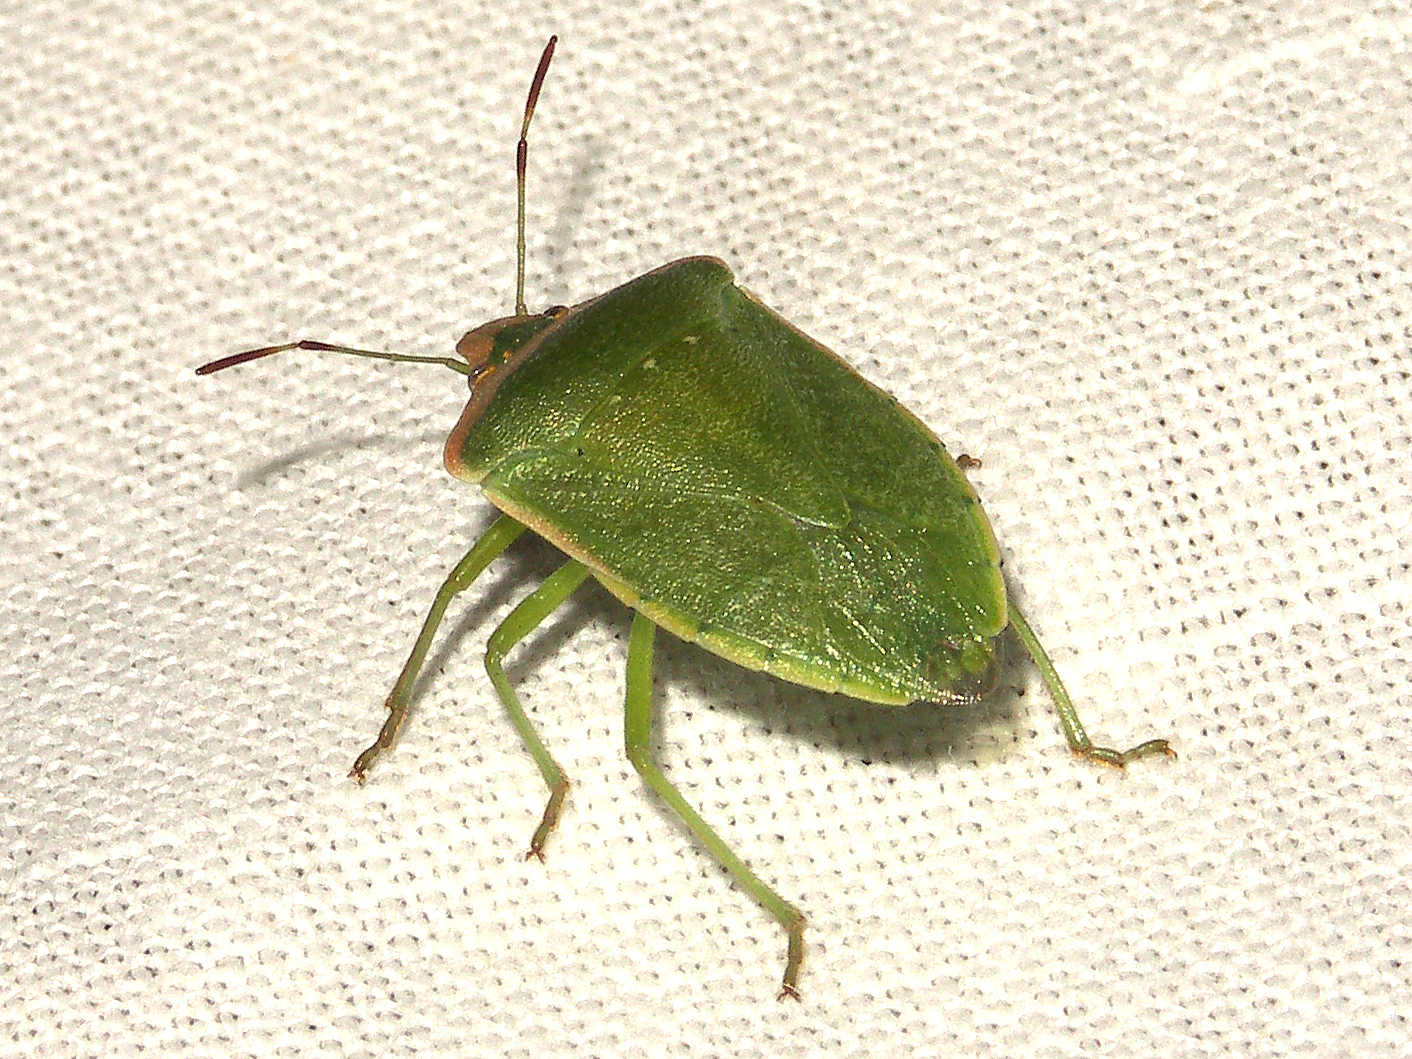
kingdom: Animalia
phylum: Arthropoda
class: Insecta
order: Hemiptera
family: Pentatomidae
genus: Nezara
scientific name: Nezara viridula
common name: Southern green stink bug
